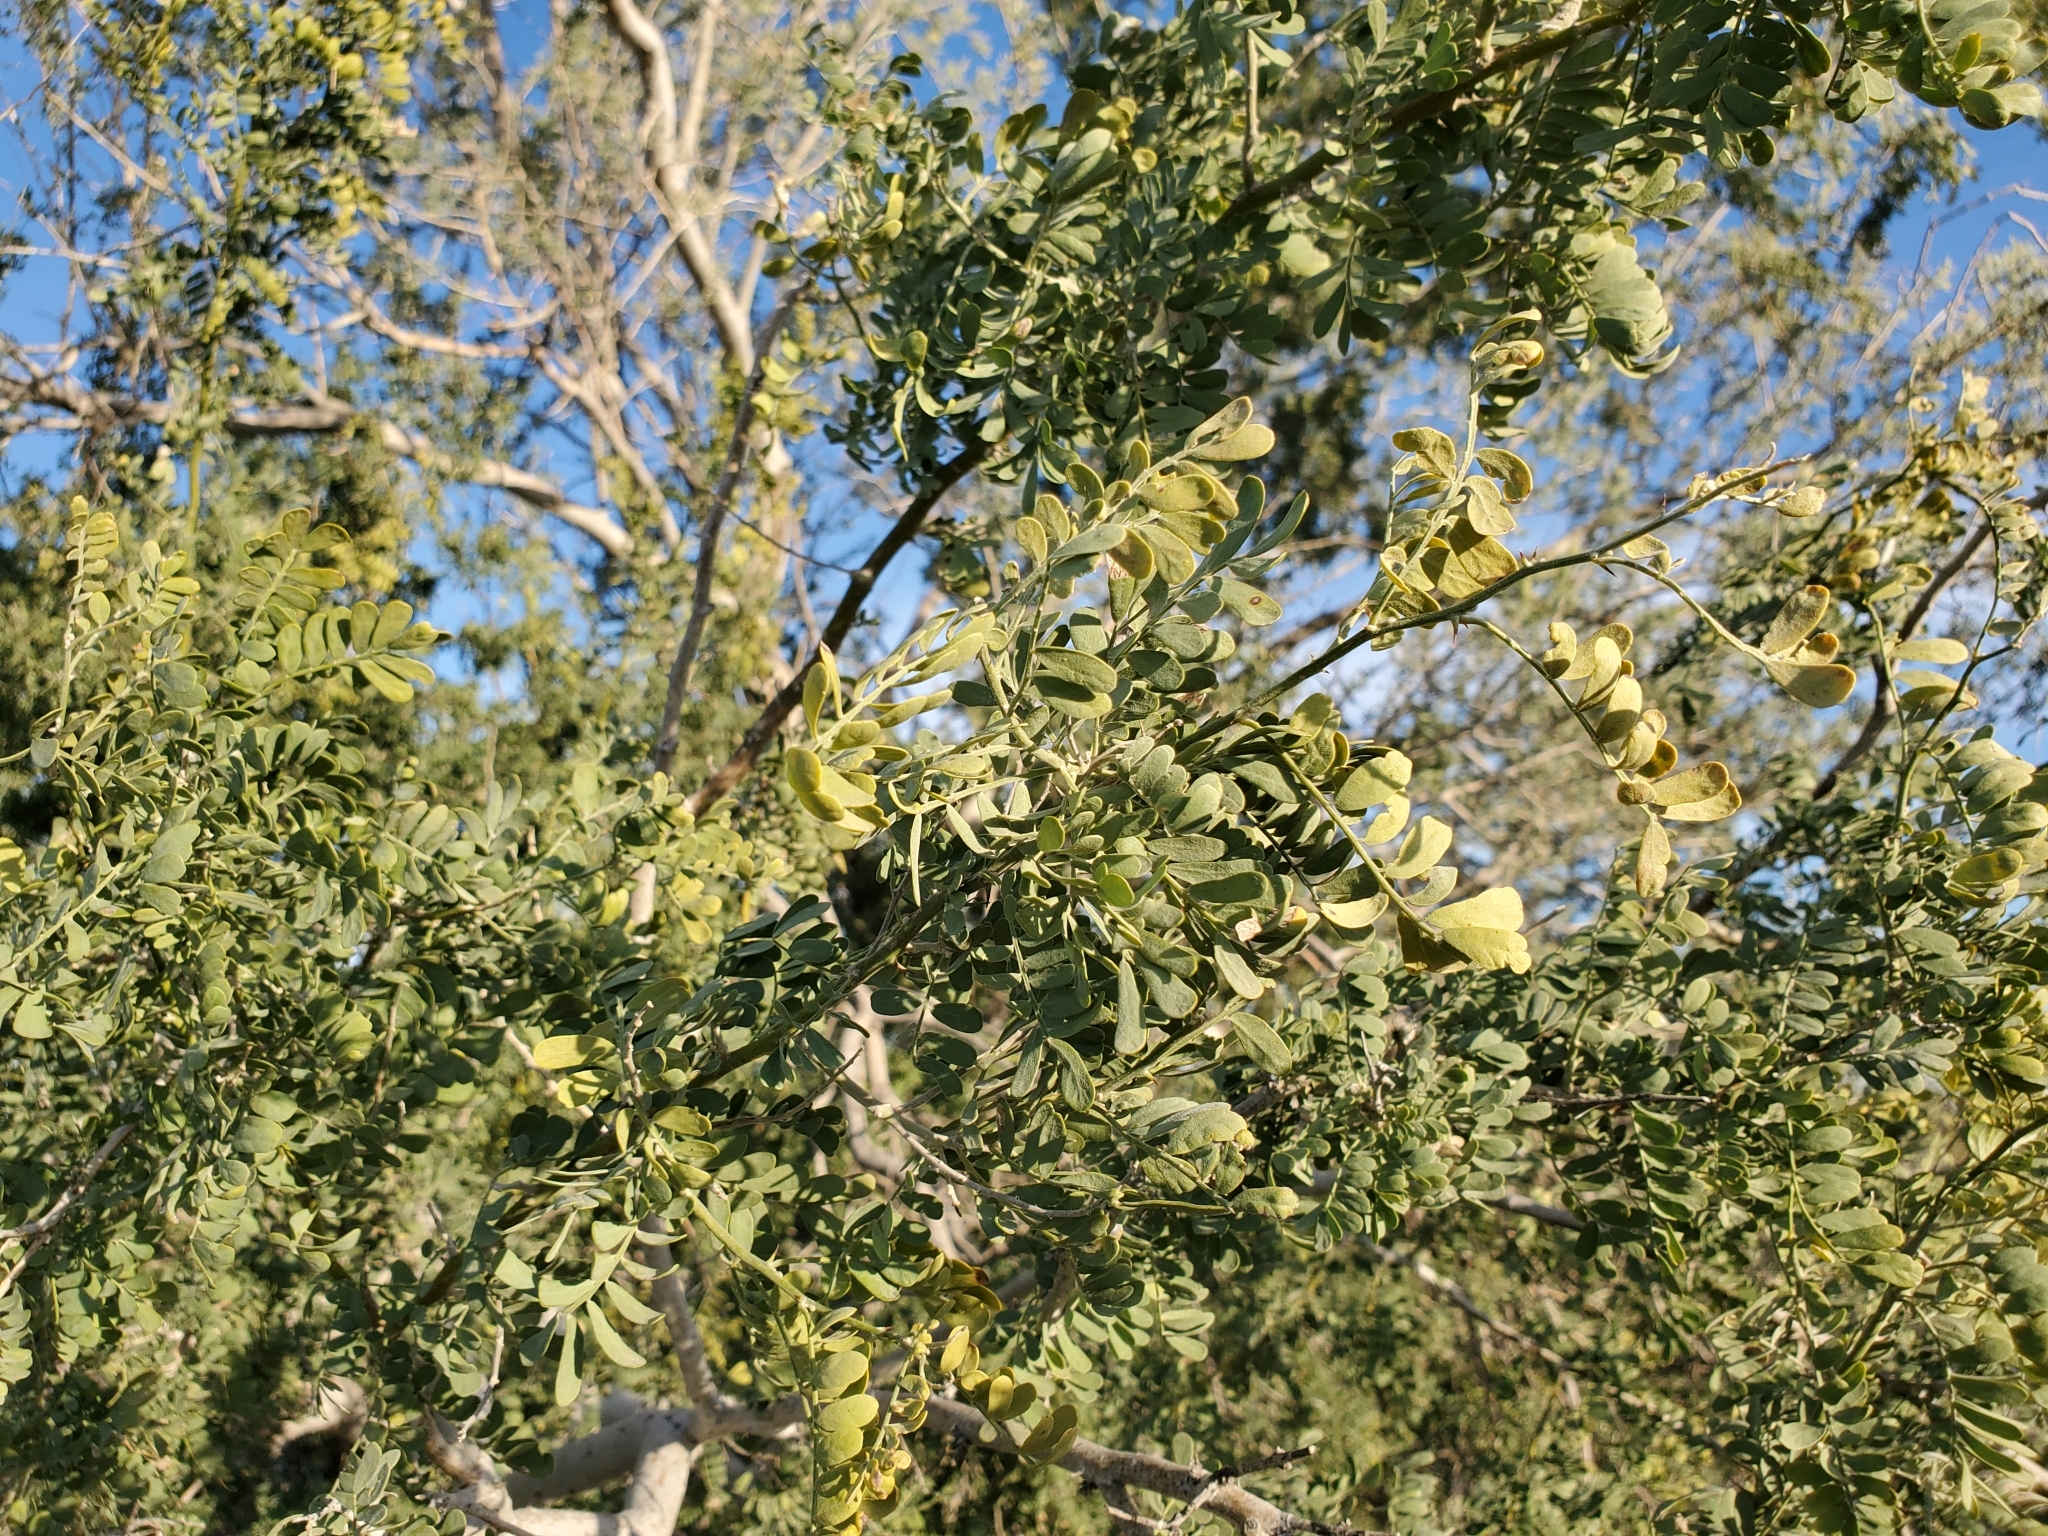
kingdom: Plantae
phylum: Tracheophyta
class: Magnoliopsida
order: Fabales
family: Fabaceae
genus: Olneya
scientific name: Olneya tesota
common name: Desert ironwood
